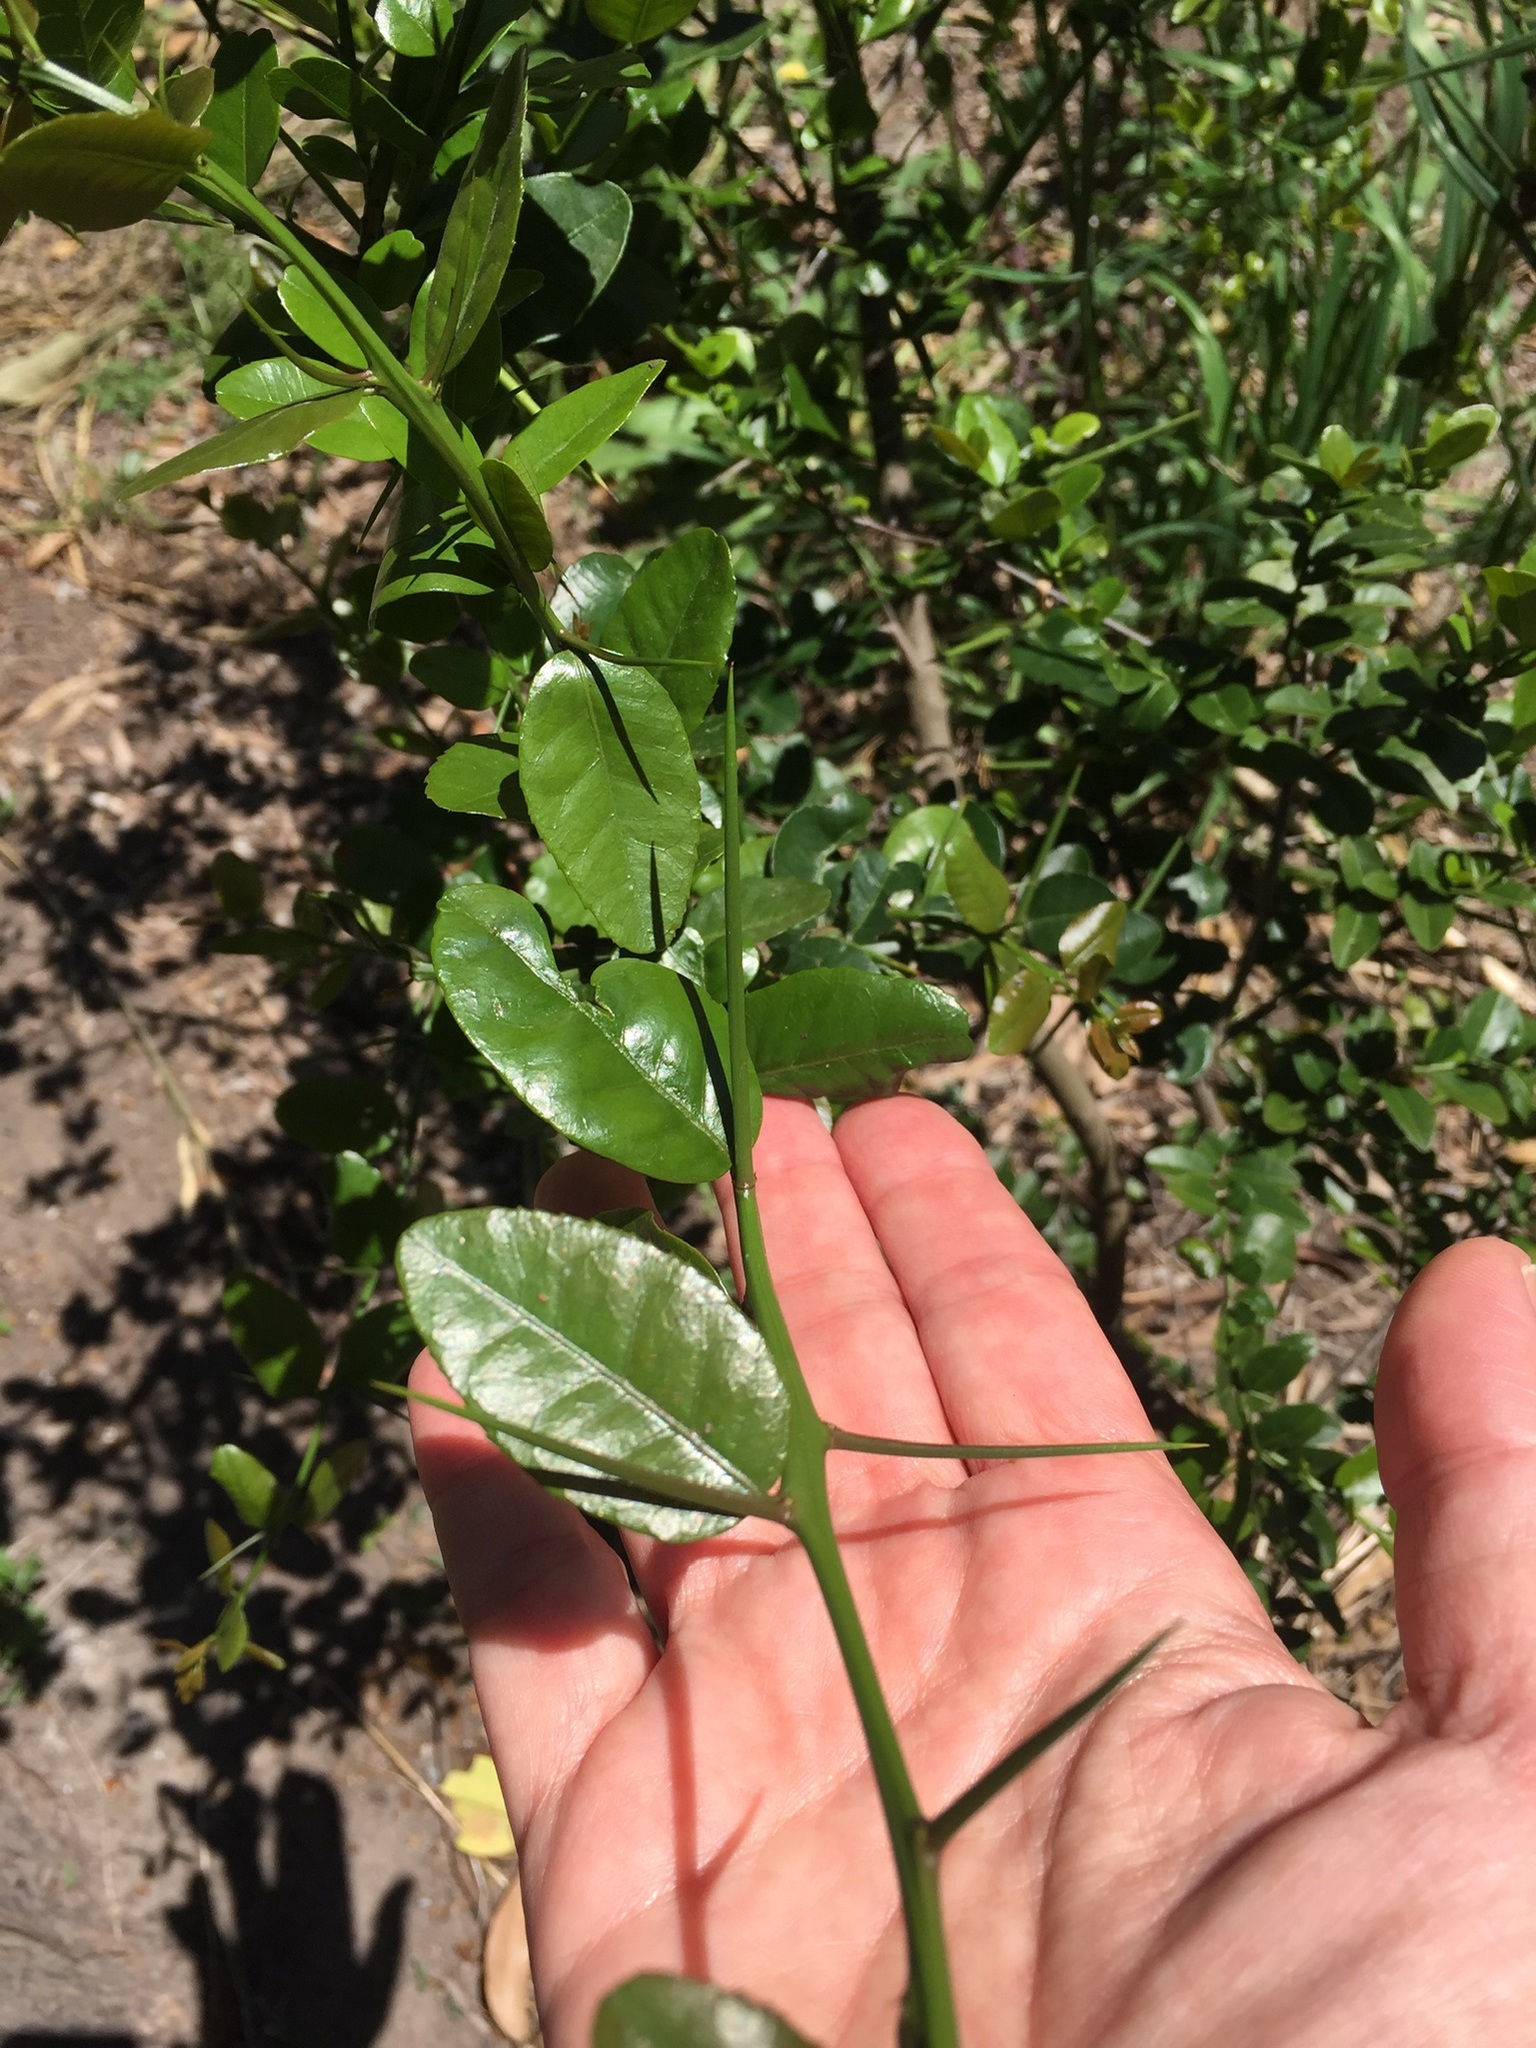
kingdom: Plantae
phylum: Tracheophyta
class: Magnoliopsida
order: Rosales
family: Rhamnaceae
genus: Scutia
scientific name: Scutia buxifolia
